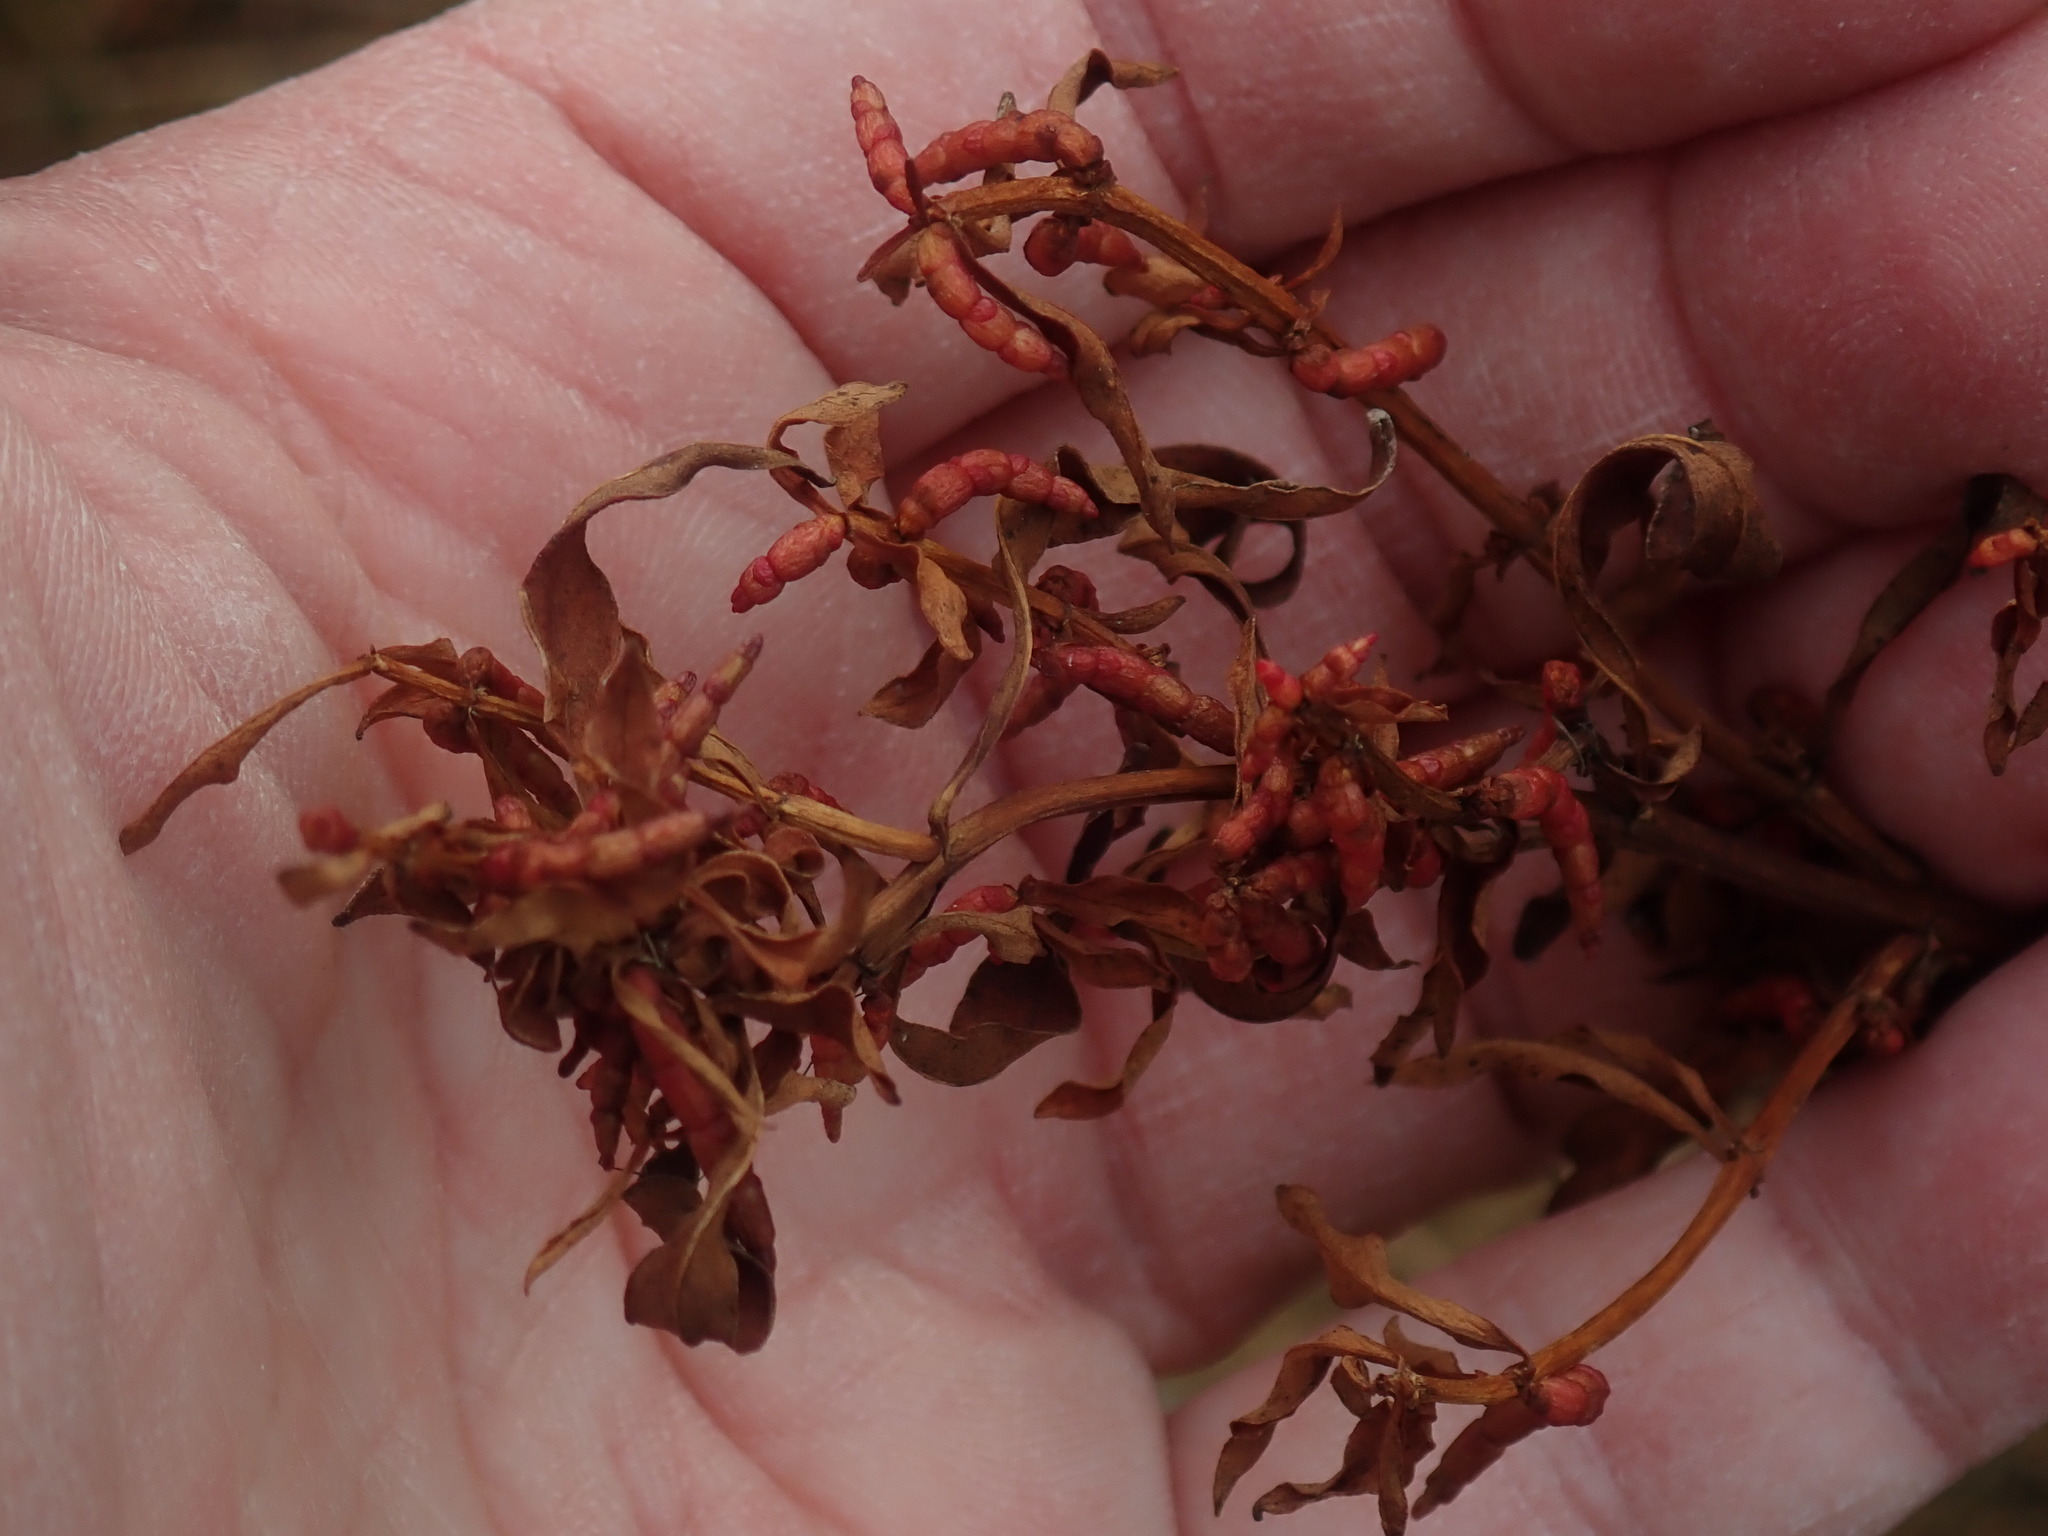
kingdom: Plantae
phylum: Tracheophyta
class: Magnoliopsida
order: Ericales
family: Primulaceae
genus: Lysimachia
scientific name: Lysimachia terrestris
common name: Lake loosestrife
